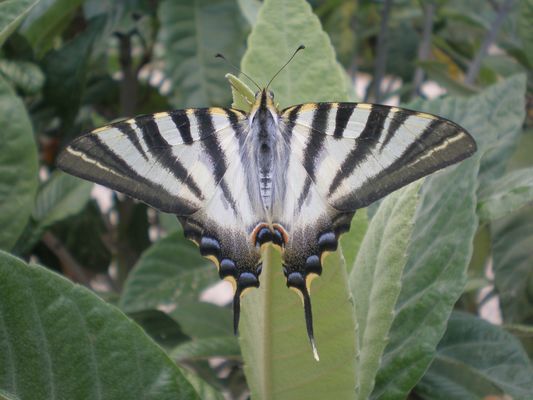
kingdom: Animalia
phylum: Arthropoda
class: Insecta
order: Lepidoptera
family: Papilionidae
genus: Iphiclides
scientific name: Iphiclides feisthamelii
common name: Iberian scarce swallowtail
